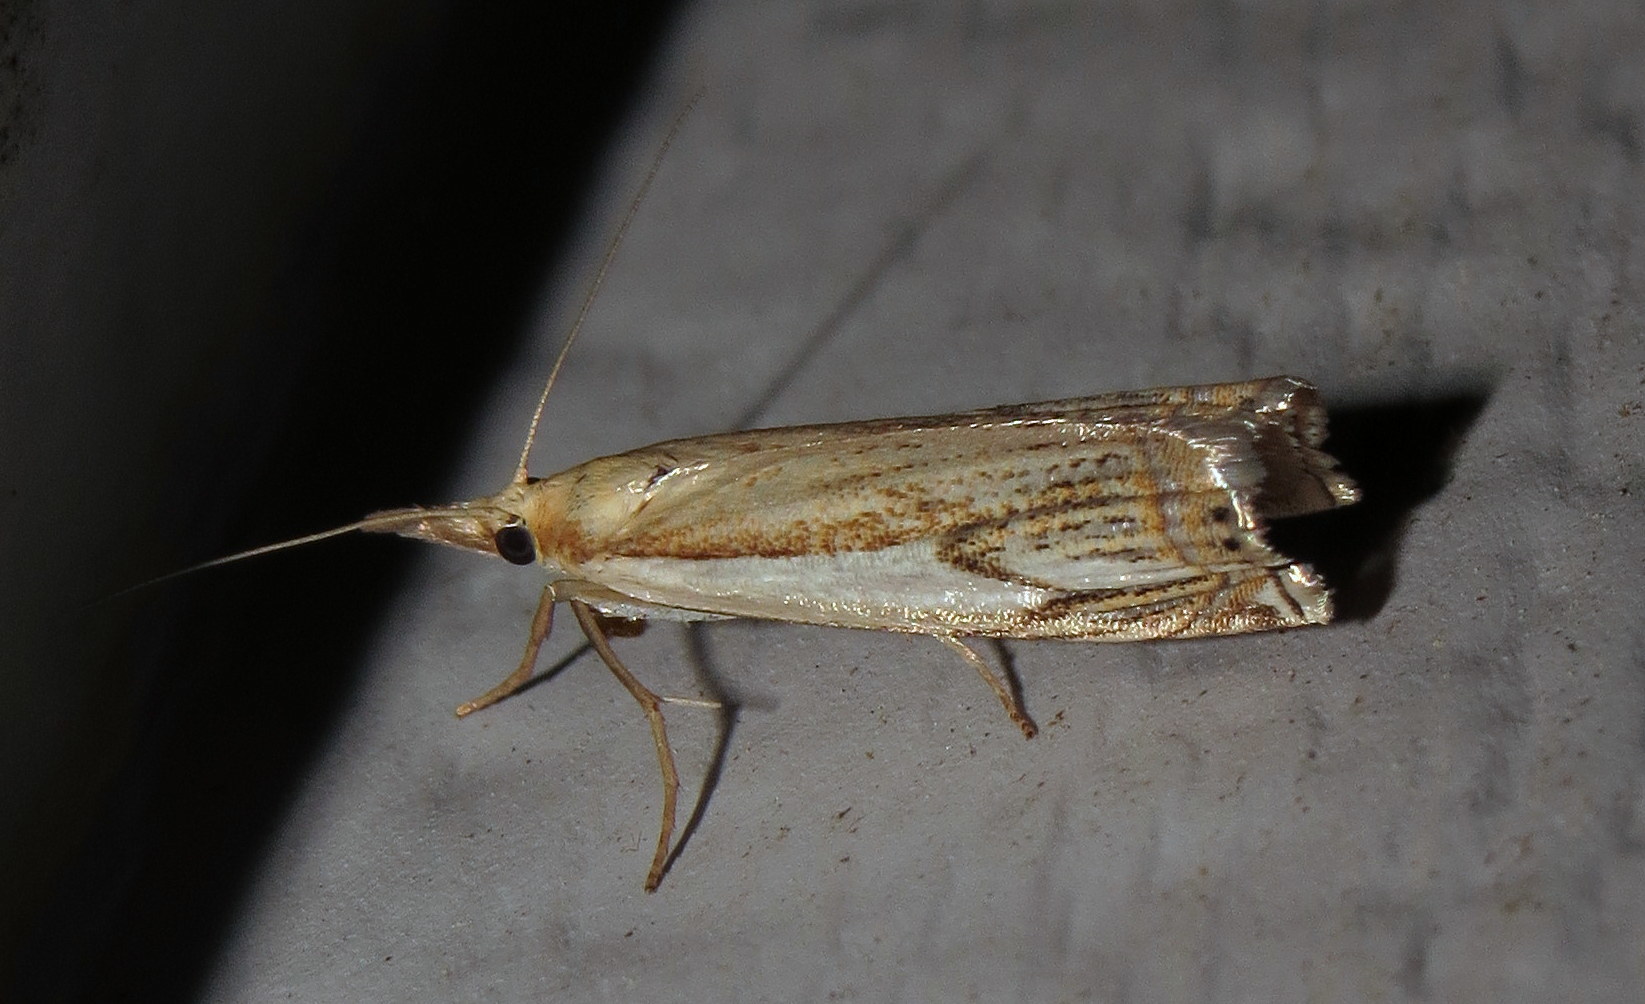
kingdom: Animalia
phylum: Arthropoda
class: Insecta
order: Lepidoptera
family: Crambidae
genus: Crambus
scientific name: Crambus agitatellus
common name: Double-banded grass-veneer
